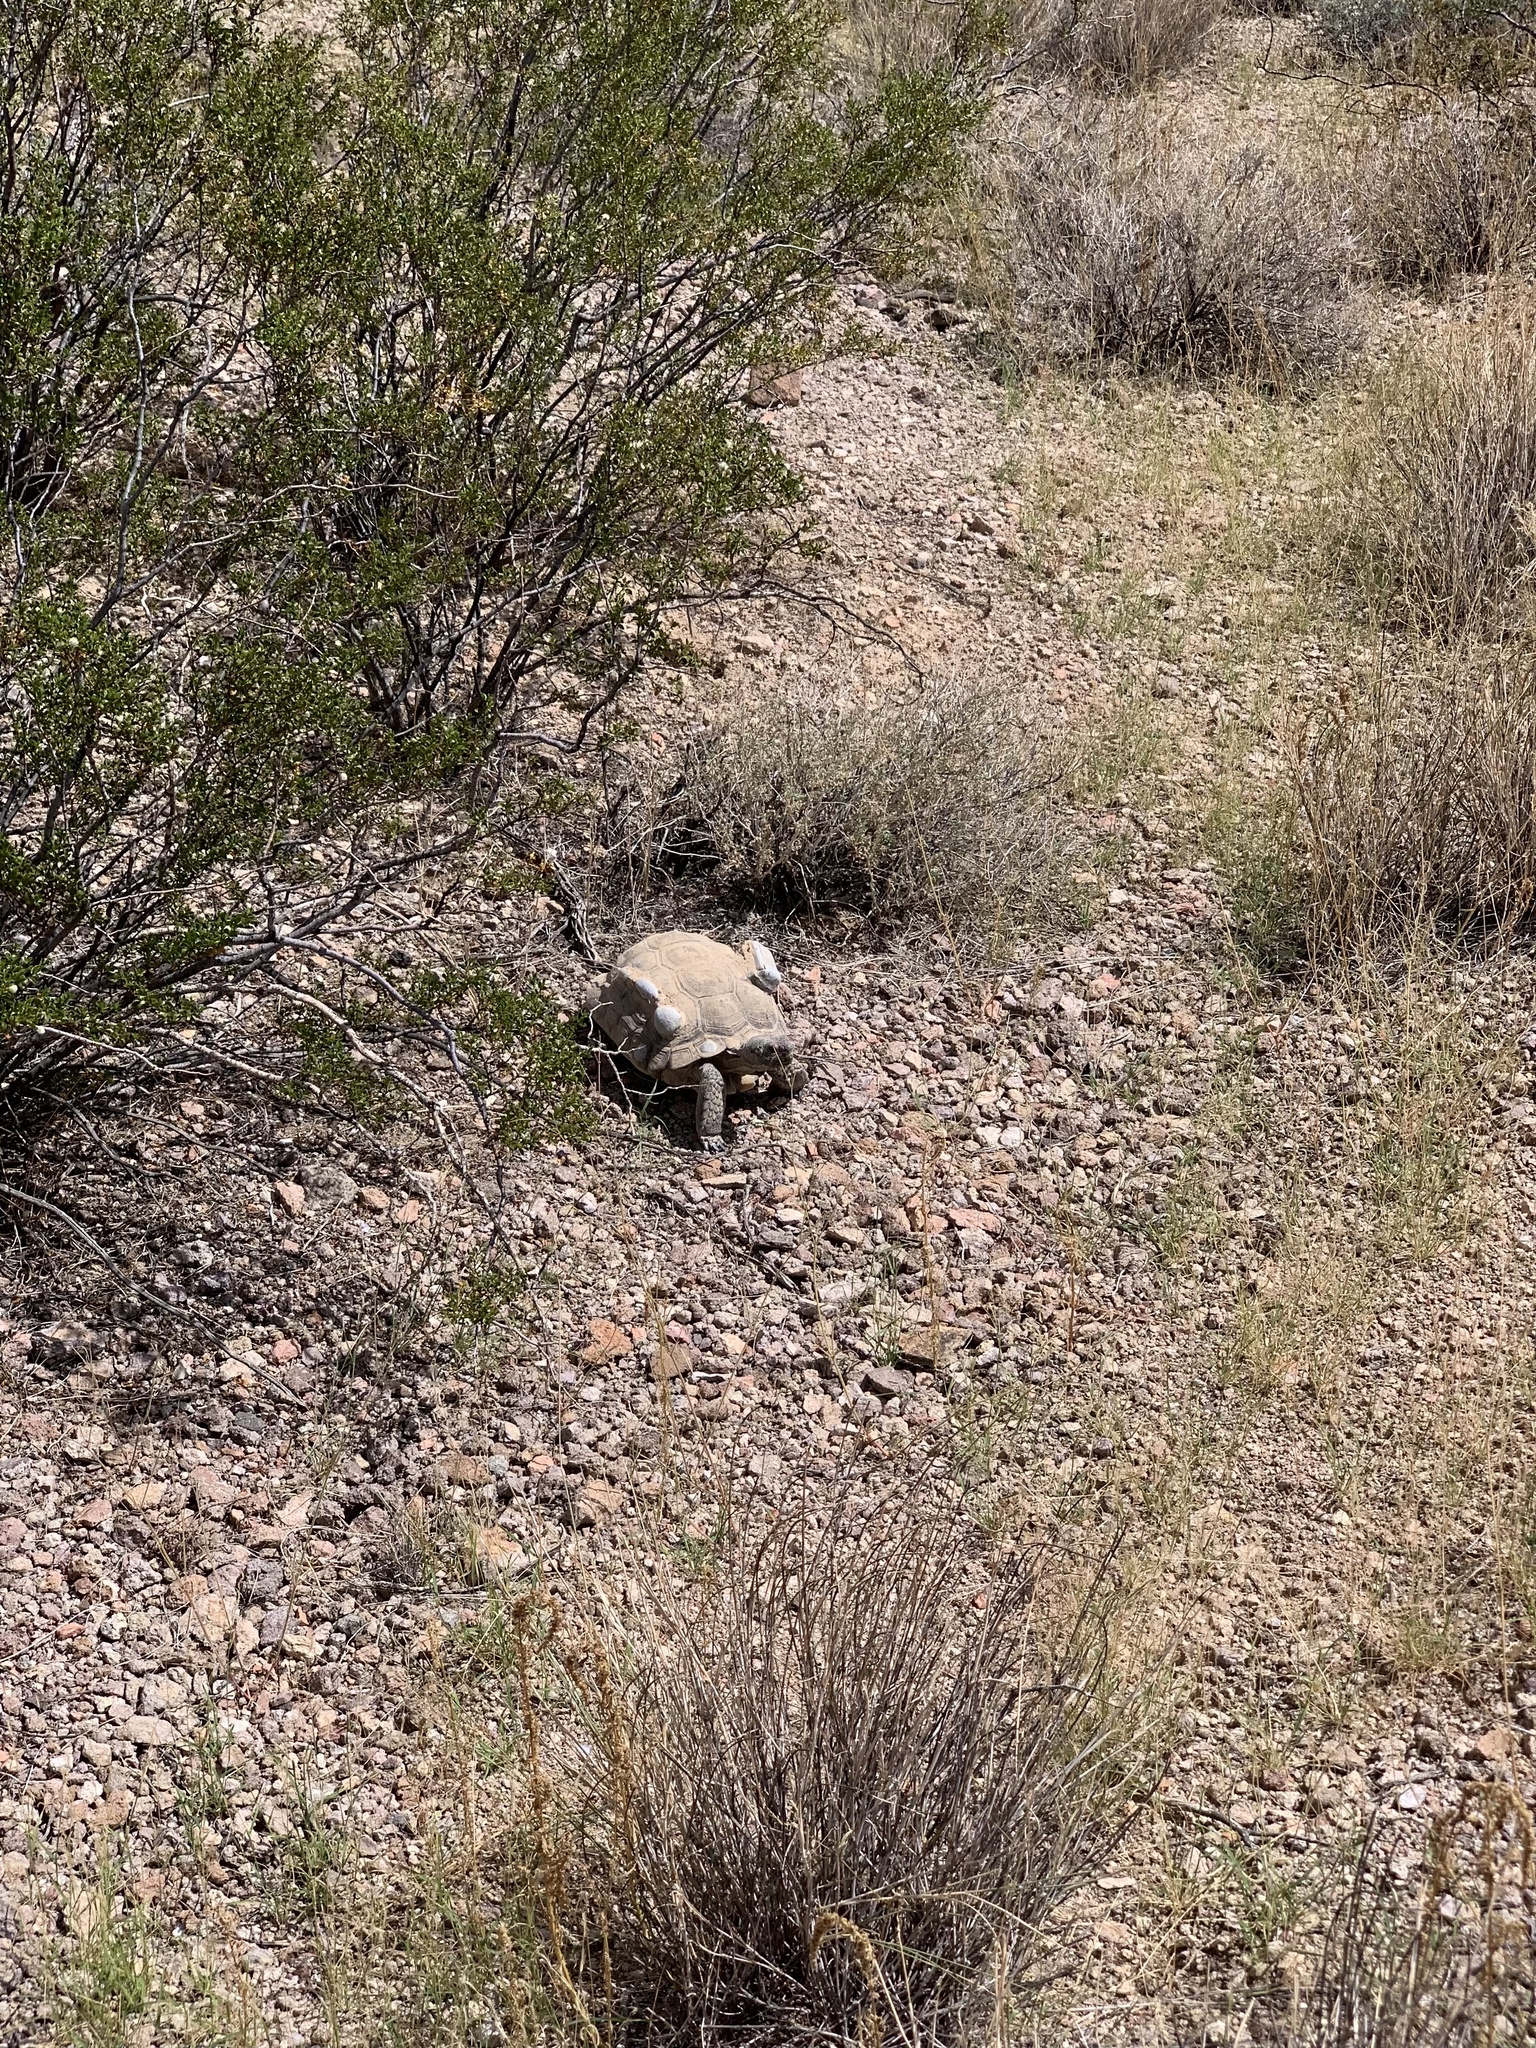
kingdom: Animalia
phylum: Chordata
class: Testudines
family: Testudinidae
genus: Gopherus
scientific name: Gopherus agassizii
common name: Mojave desert tortoise
